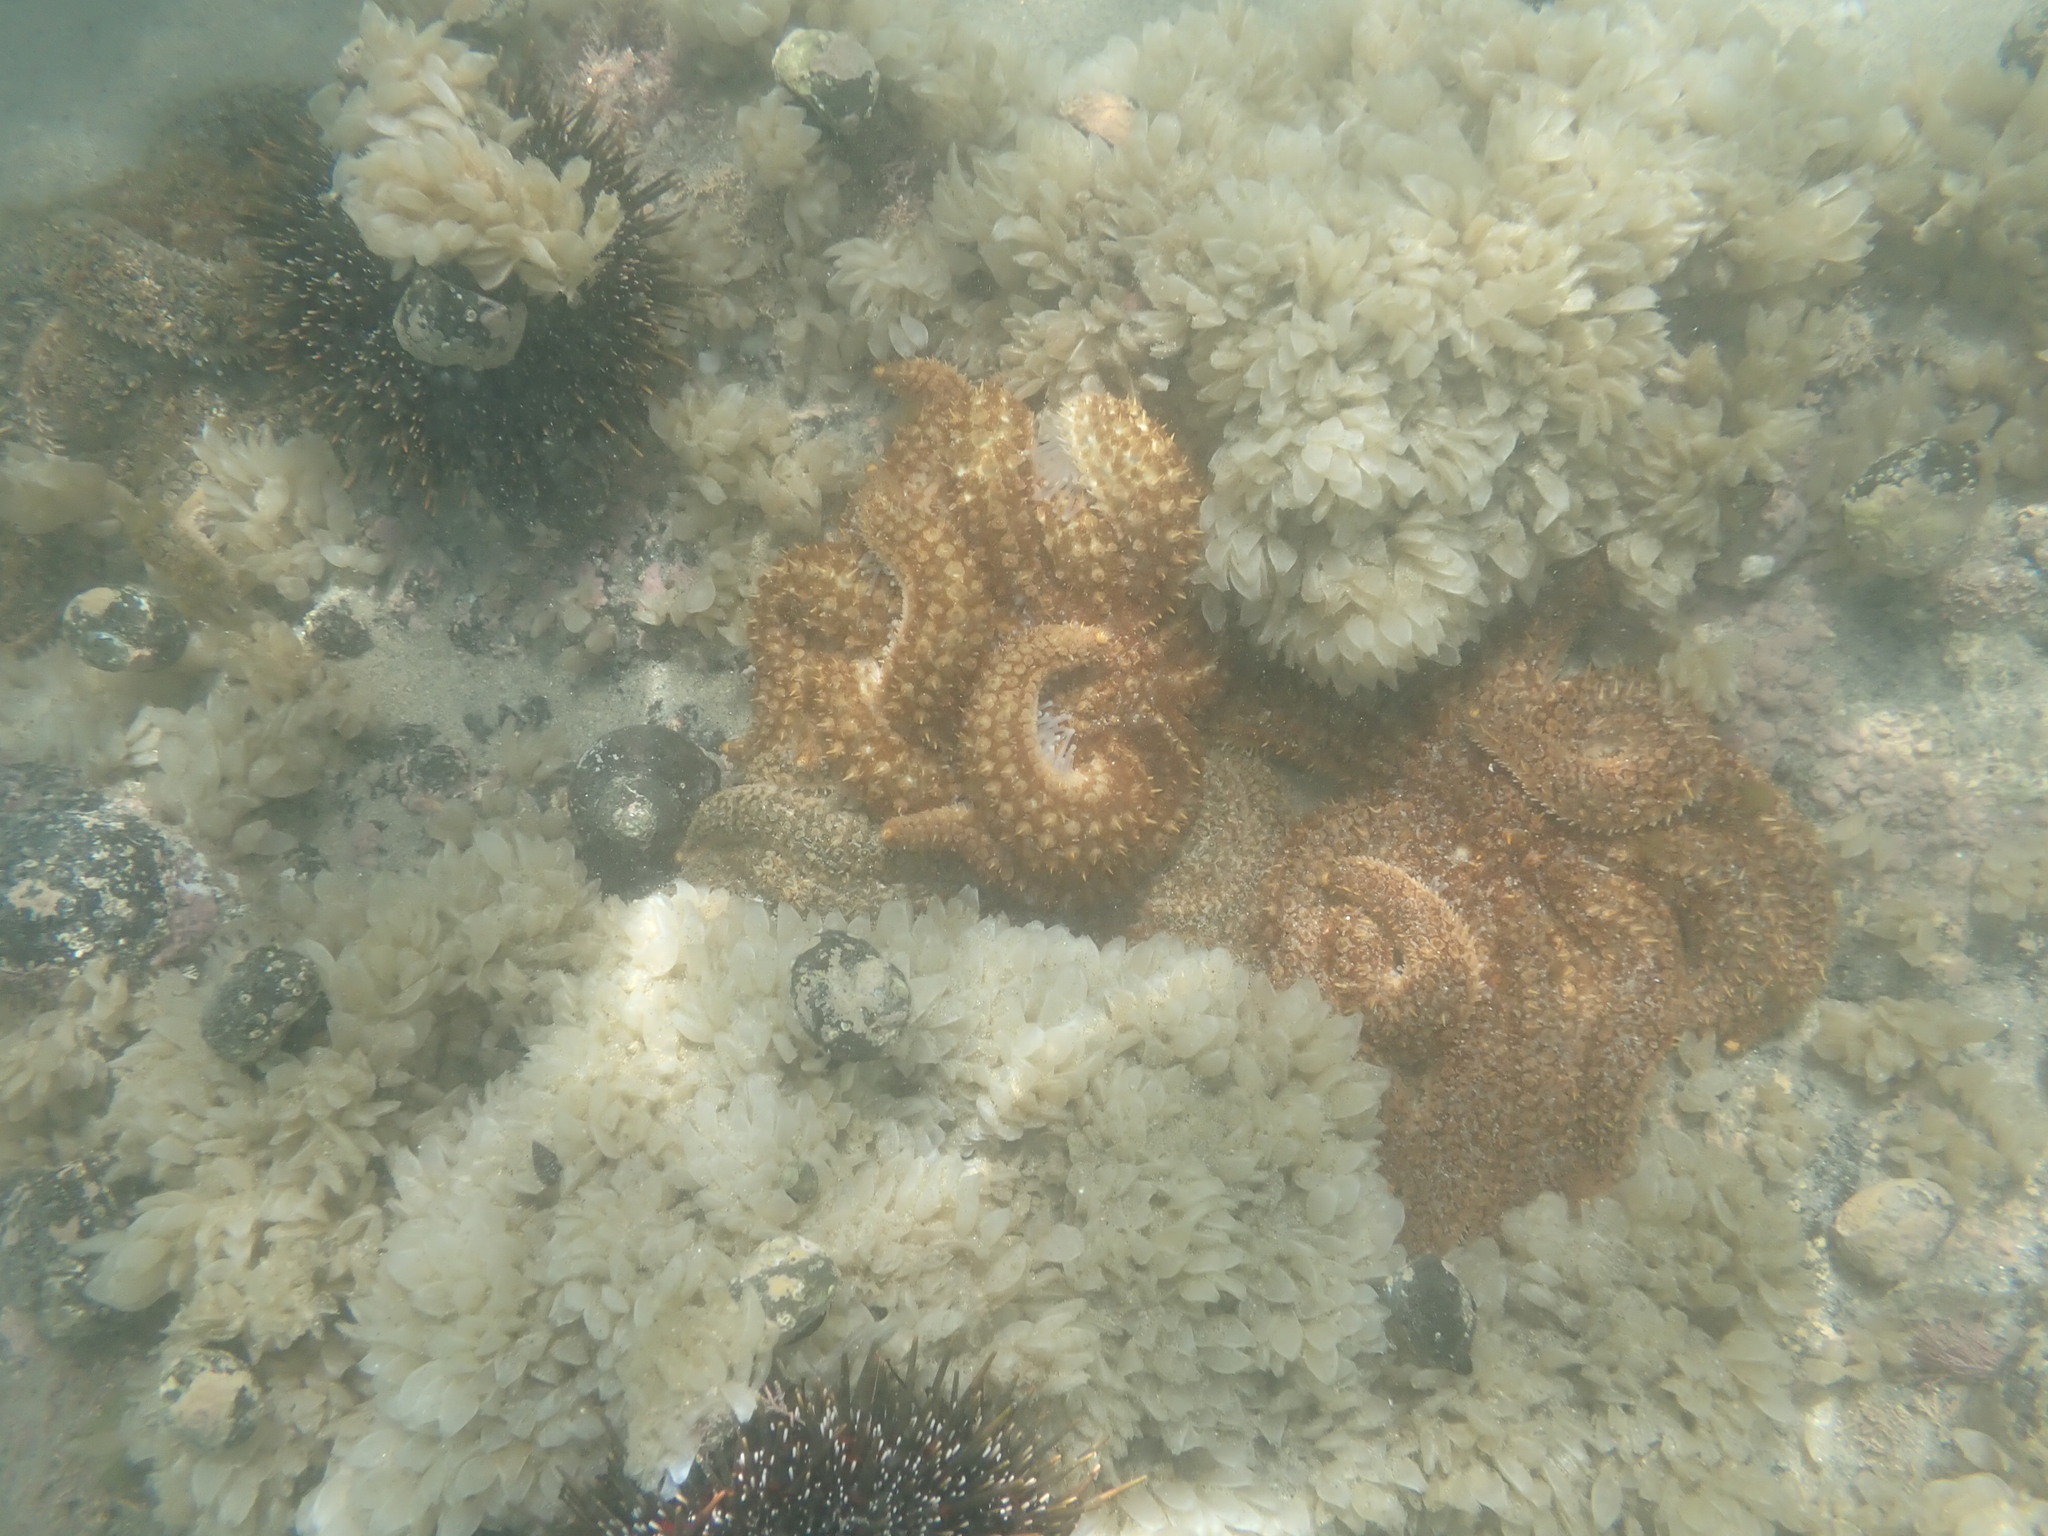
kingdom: Animalia
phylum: Echinodermata
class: Asteroidea
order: Forcipulatida
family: Asteriidae
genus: Coscinasterias
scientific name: Coscinasterias muricata
